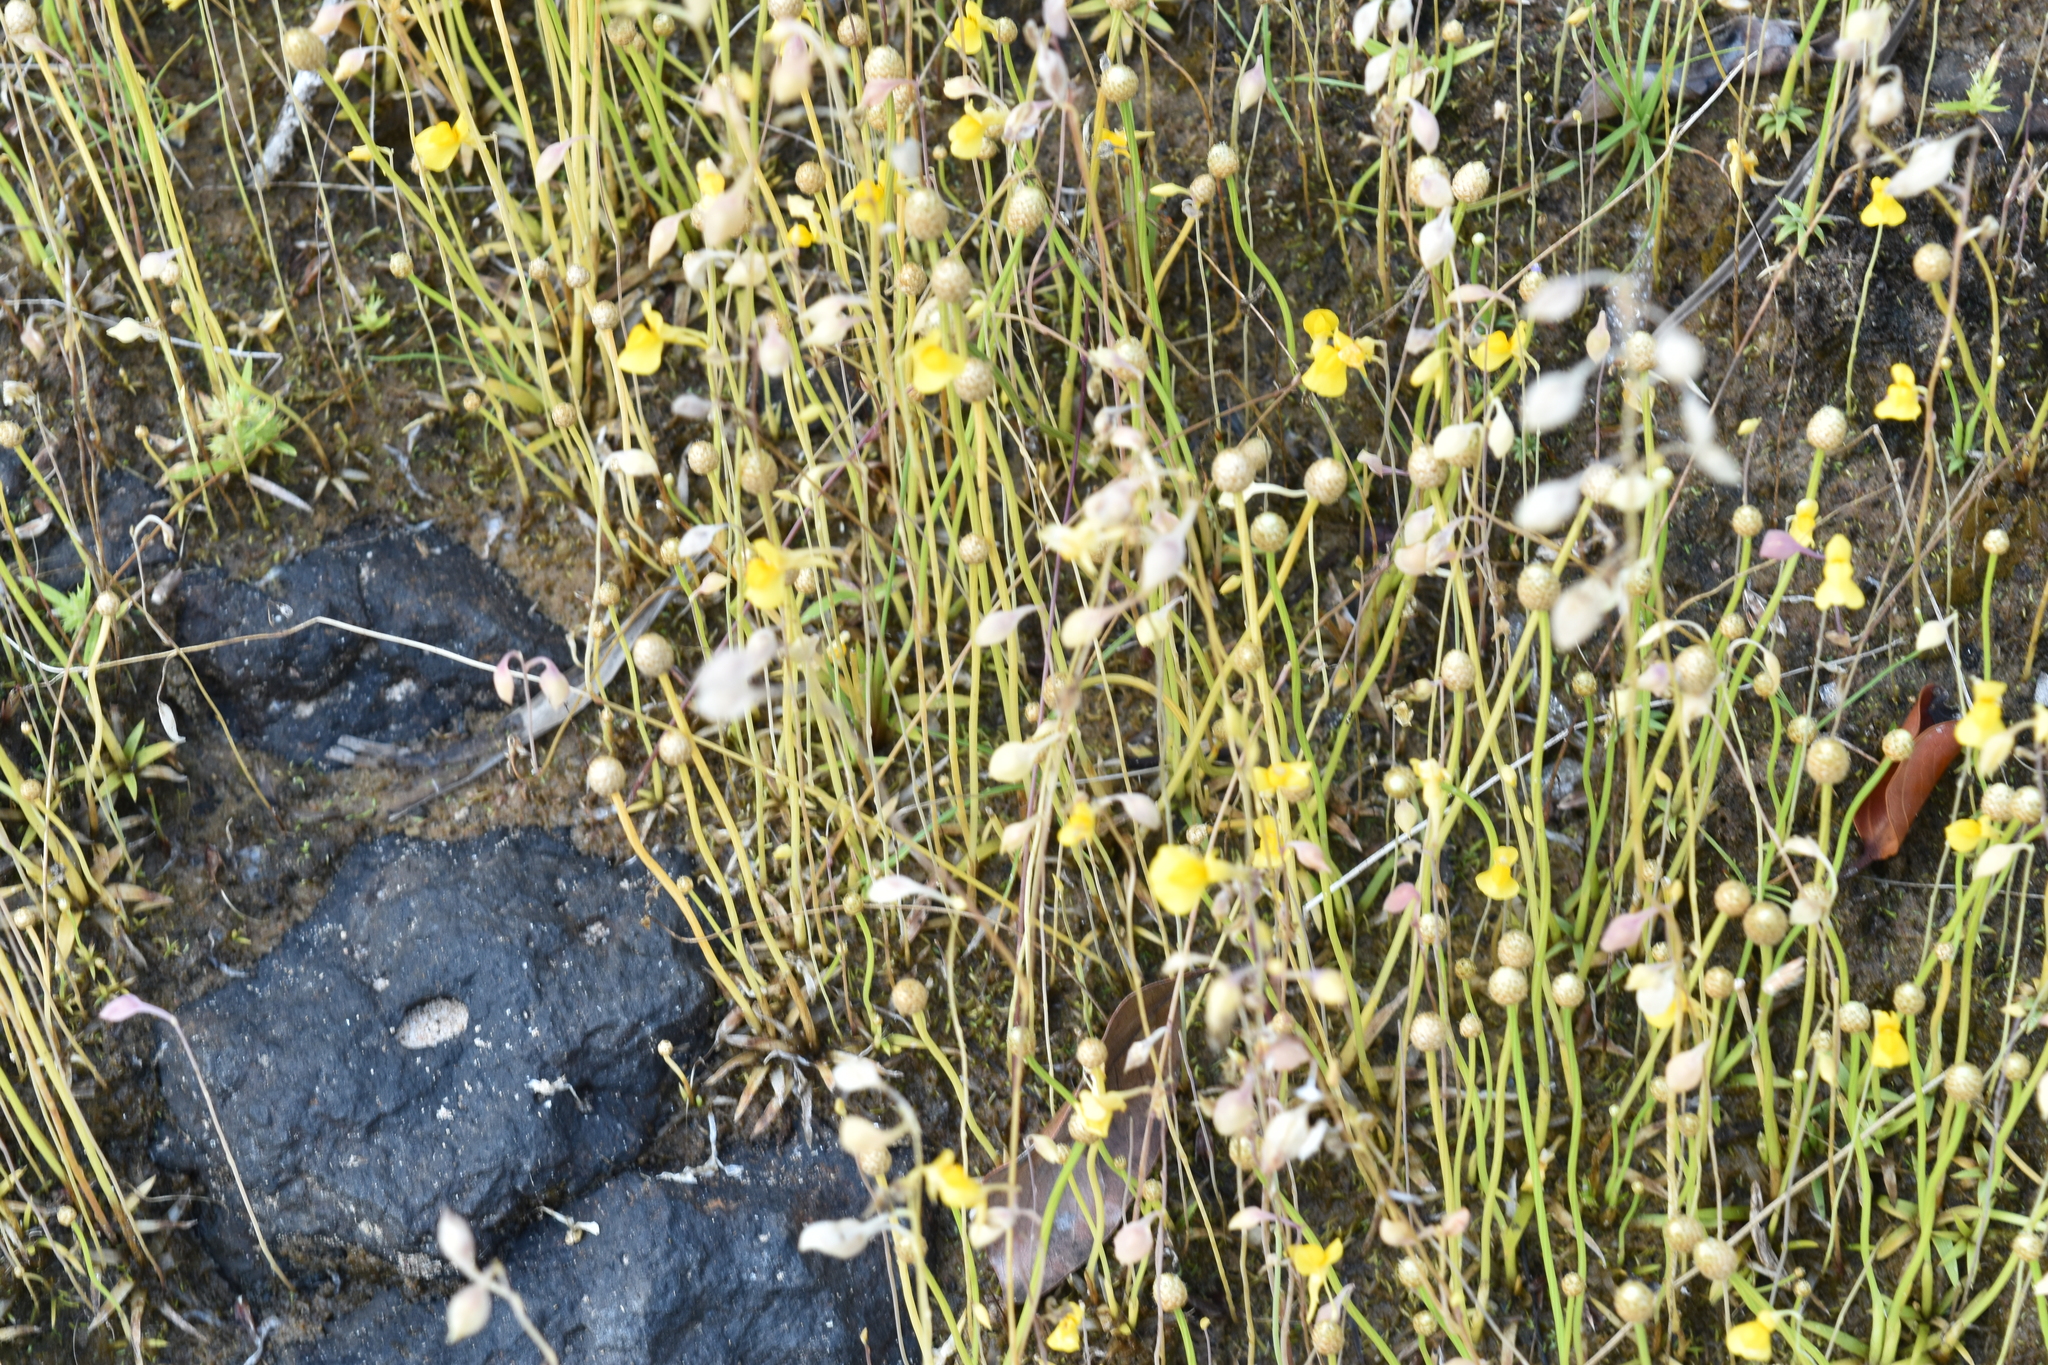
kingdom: Plantae
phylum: Tracheophyta
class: Magnoliopsida
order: Lamiales
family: Lentibulariaceae
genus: Utricularia
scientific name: Utricularia bifida
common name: Bifid bladderwort
